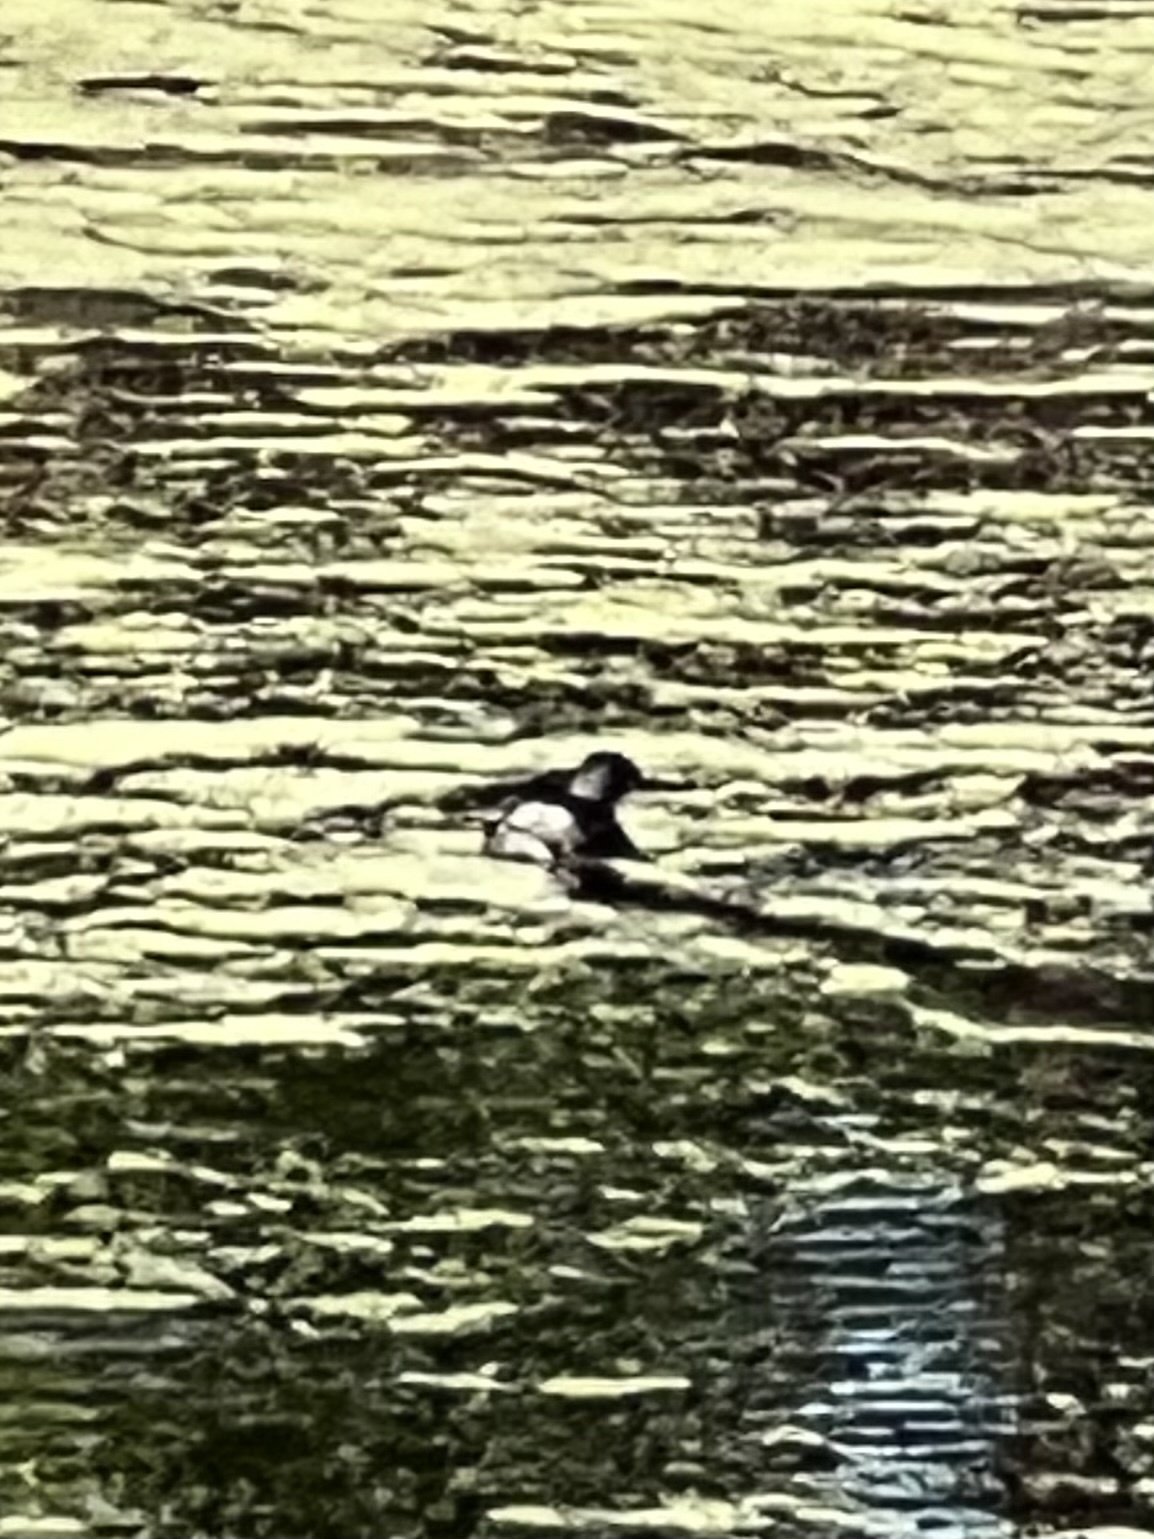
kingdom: Animalia
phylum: Chordata
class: Aves
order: Podicipediformes
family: Podicipedidae
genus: Tachybaptus
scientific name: Tachybaptus dominicus
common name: Least grebe
